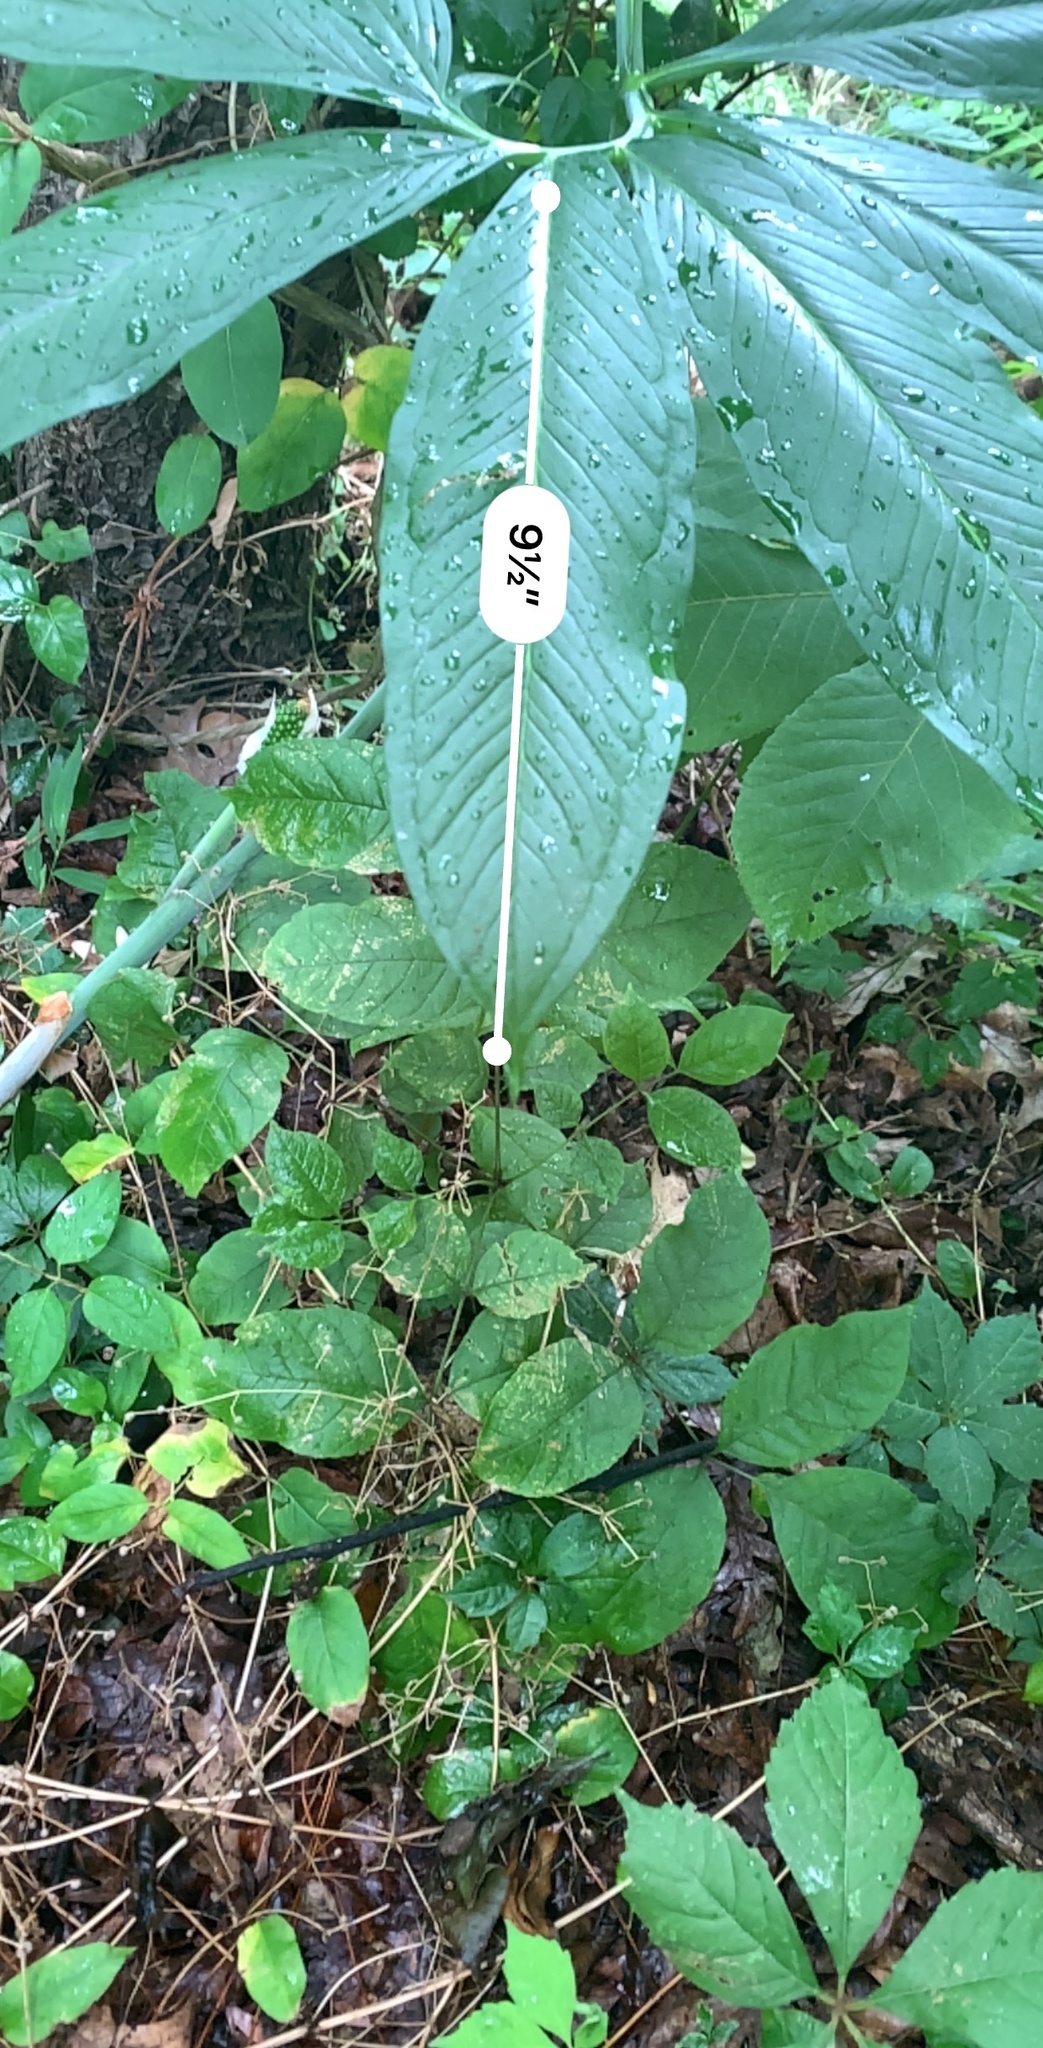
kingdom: Plantae
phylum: Tracheophyta
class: Liliopsida
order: Alismatales
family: Araceae
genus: Arisaema
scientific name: Arisaema dracontium
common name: Dragon-arum
